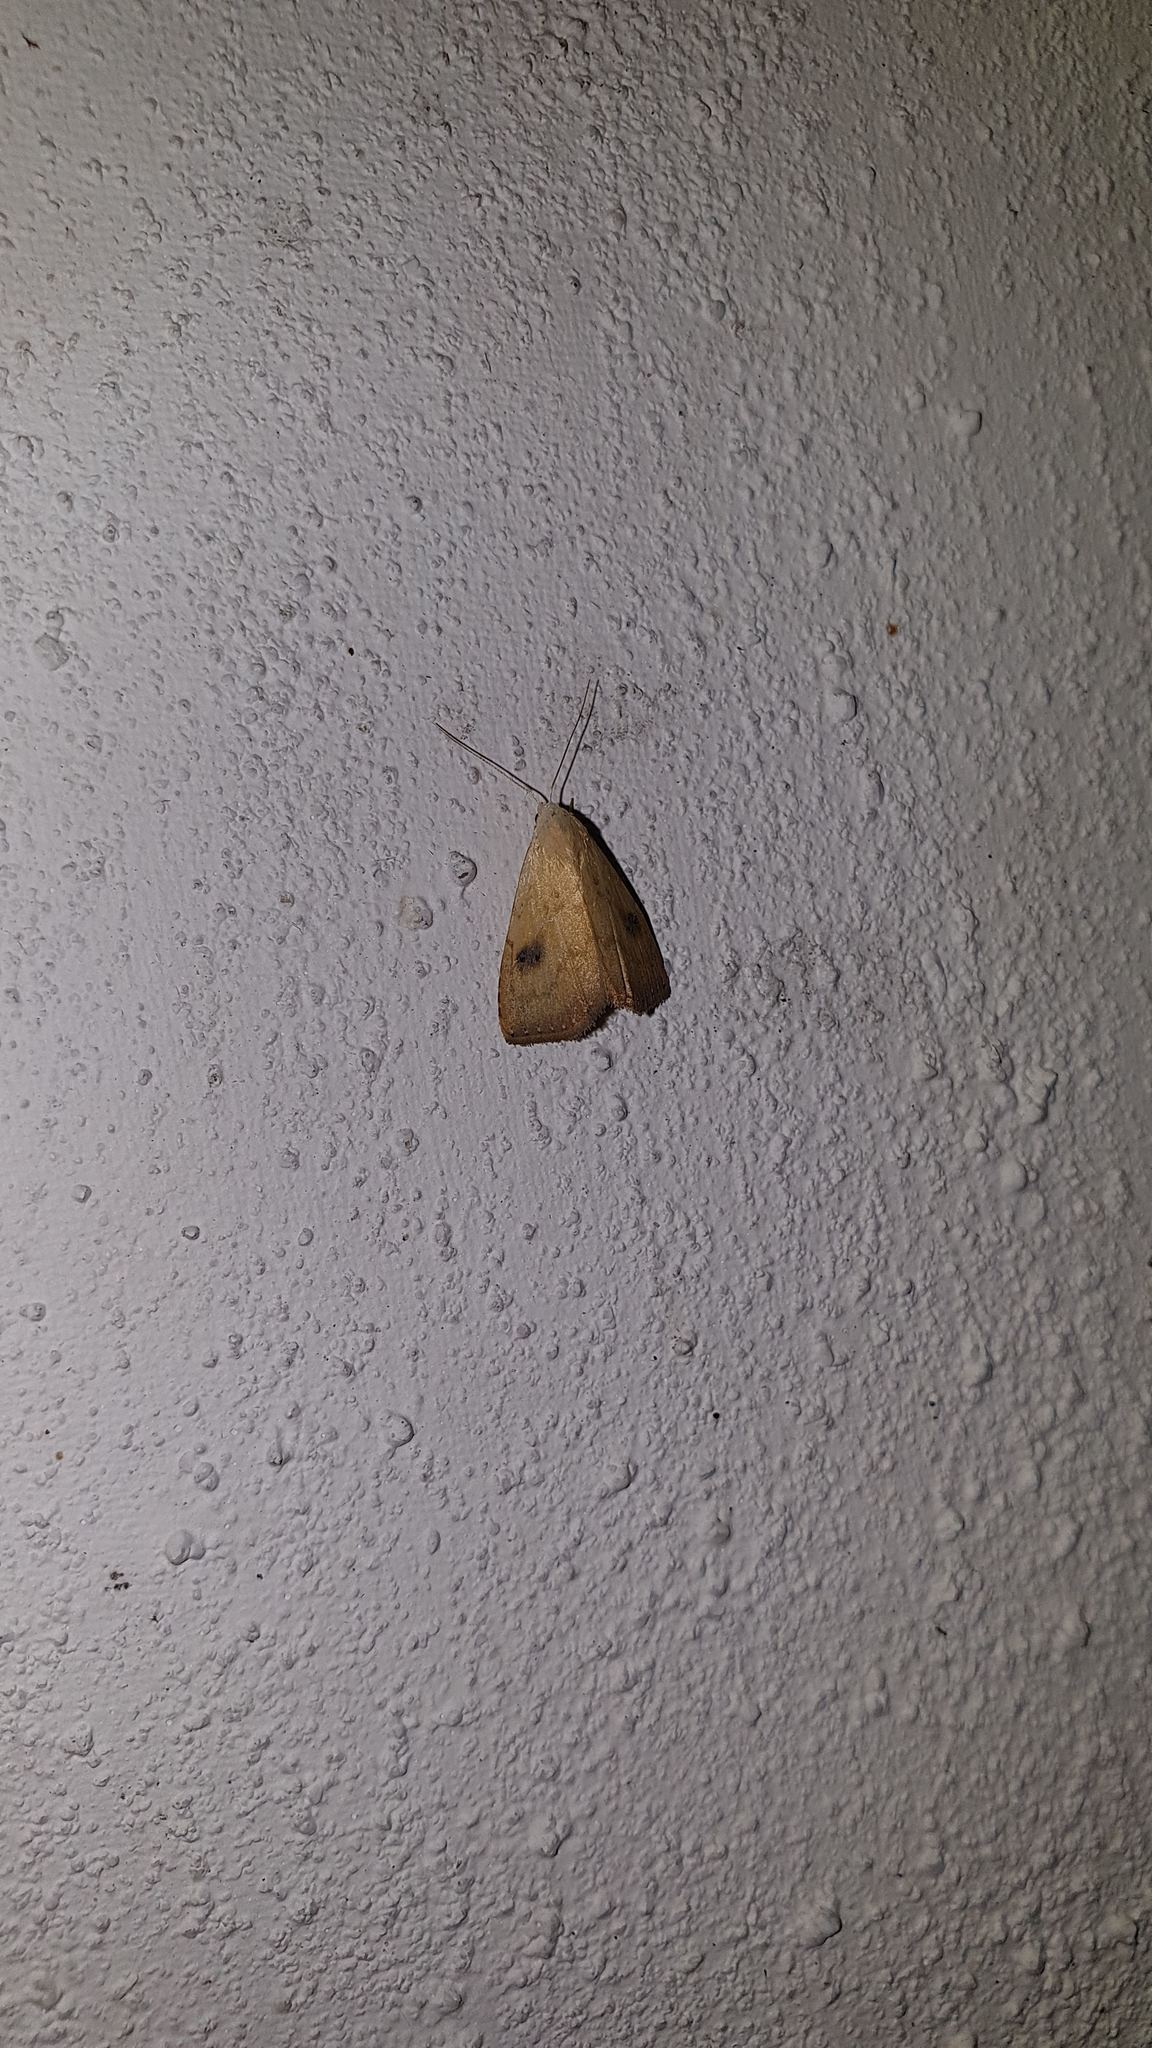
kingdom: Animalia
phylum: Arthropoda
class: Insecta
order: Lepidoptera
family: Erebidae
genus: Rivula
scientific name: Rivula sericealis
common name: Straw dot
